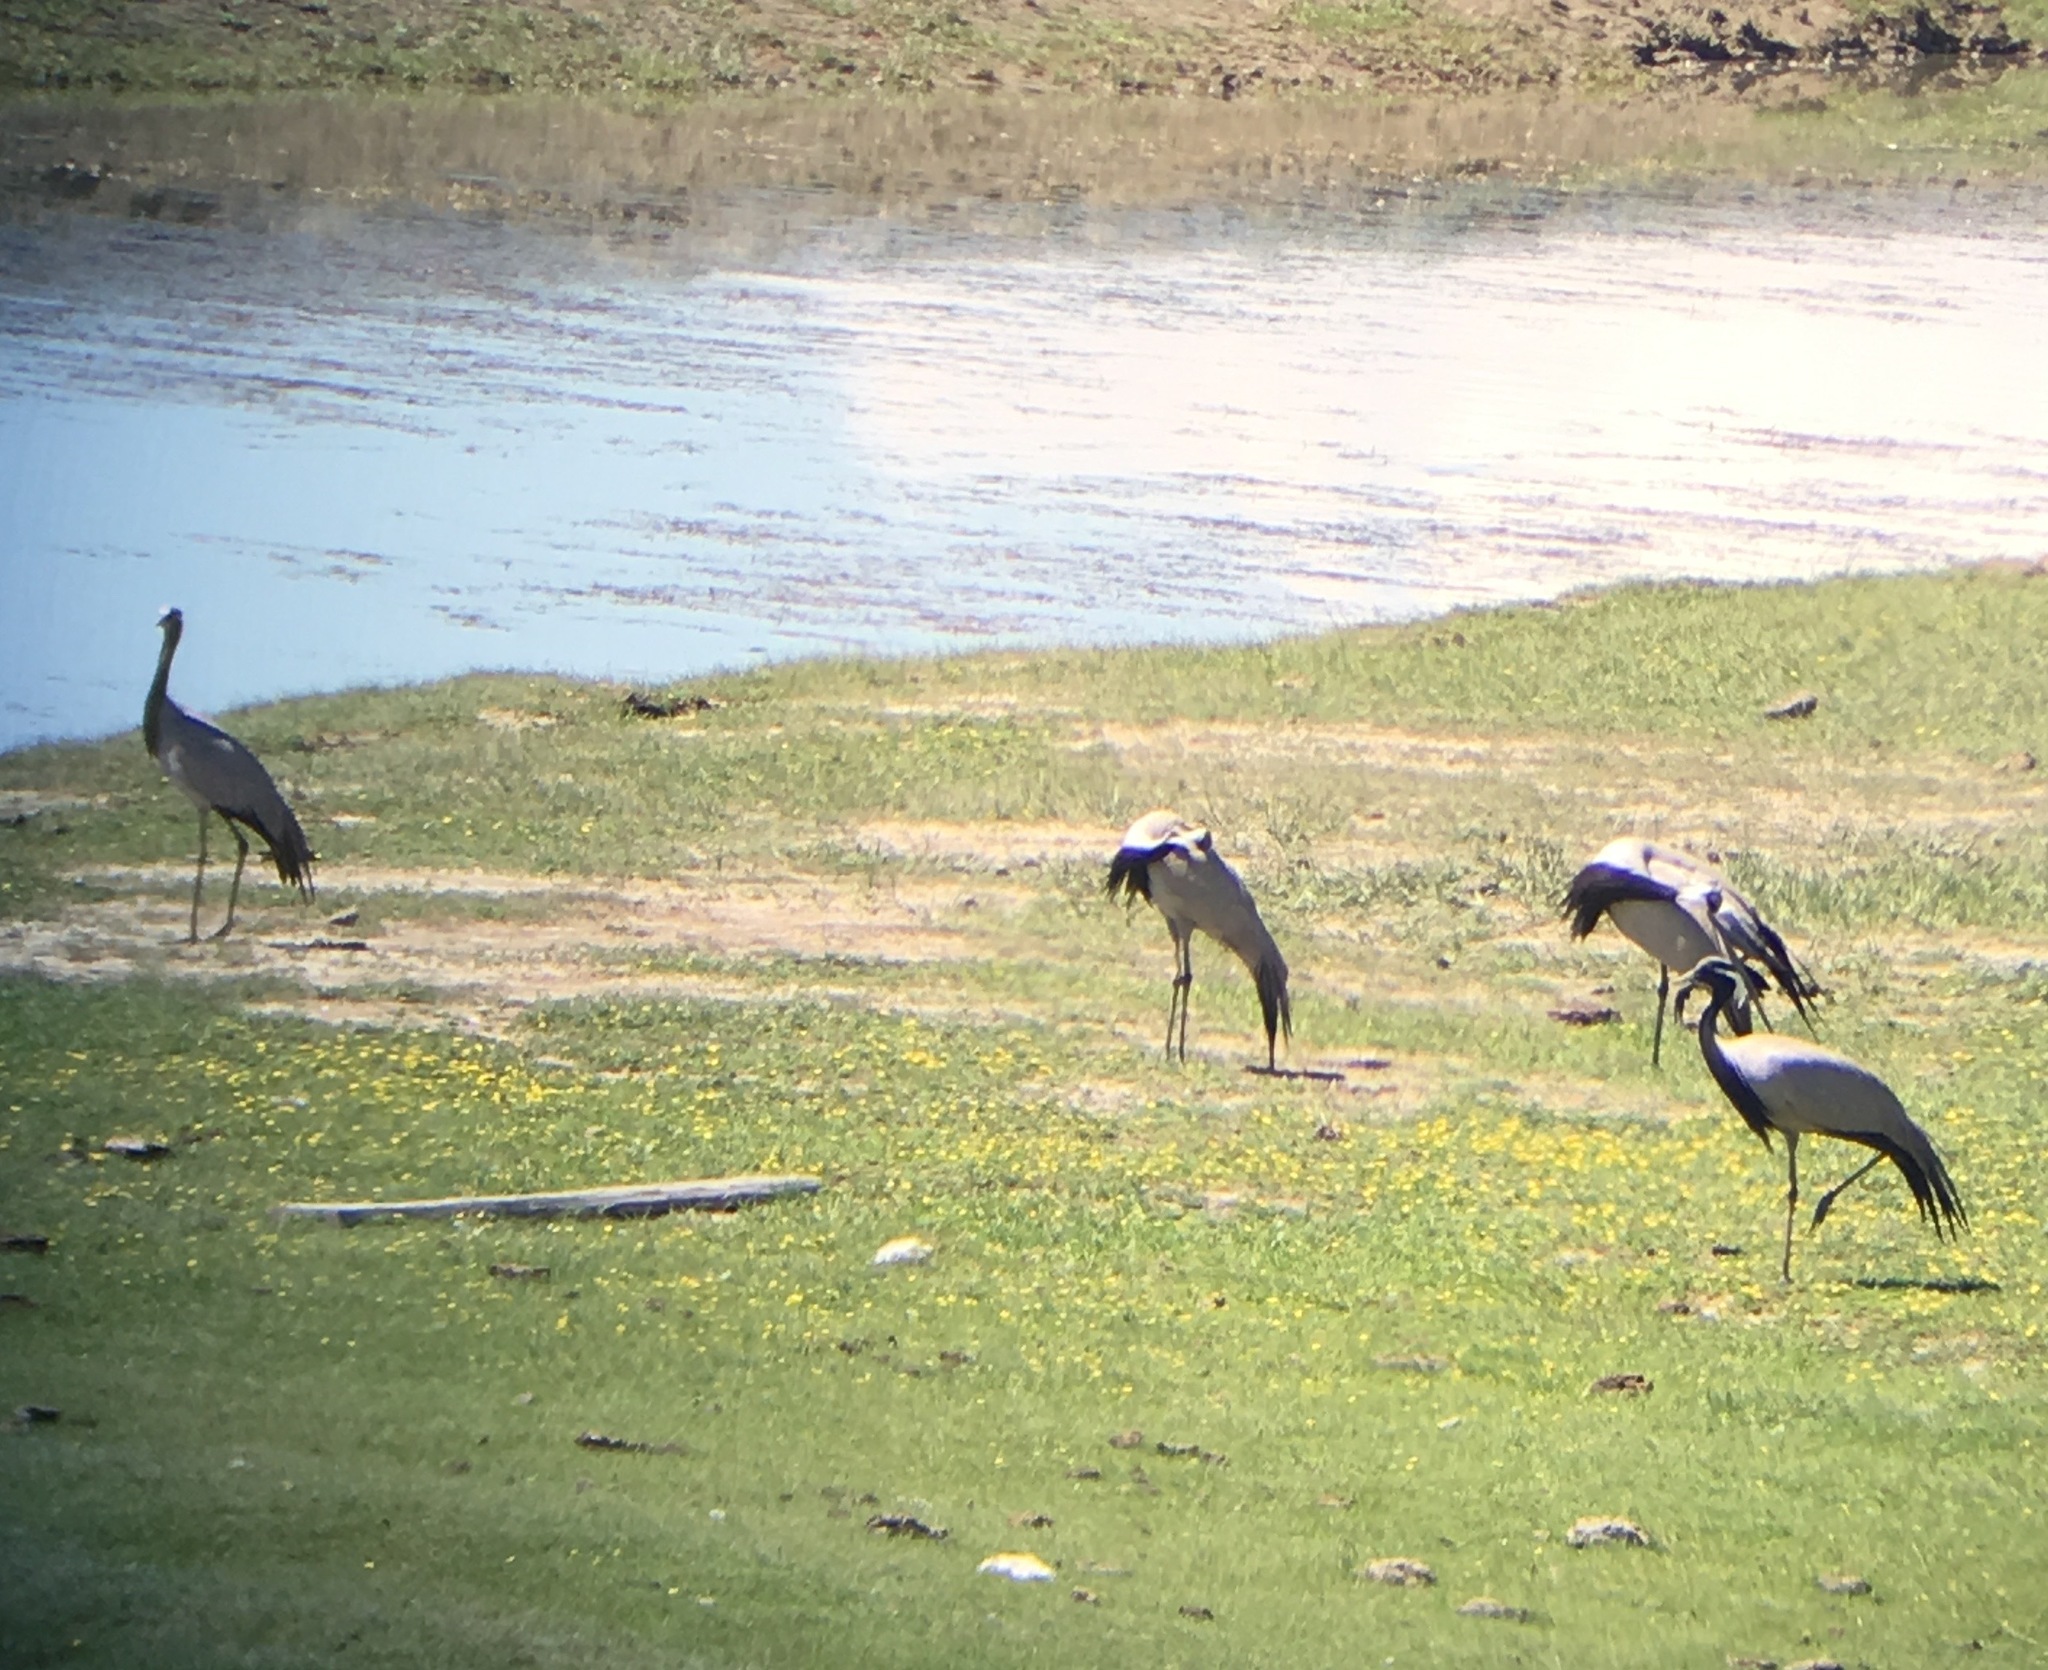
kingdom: Animalia
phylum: Chordata
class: Aves
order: Gruiformes
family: Gruidae
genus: Anthropoides
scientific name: Anthropoides virgo
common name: Demoiselle crane
